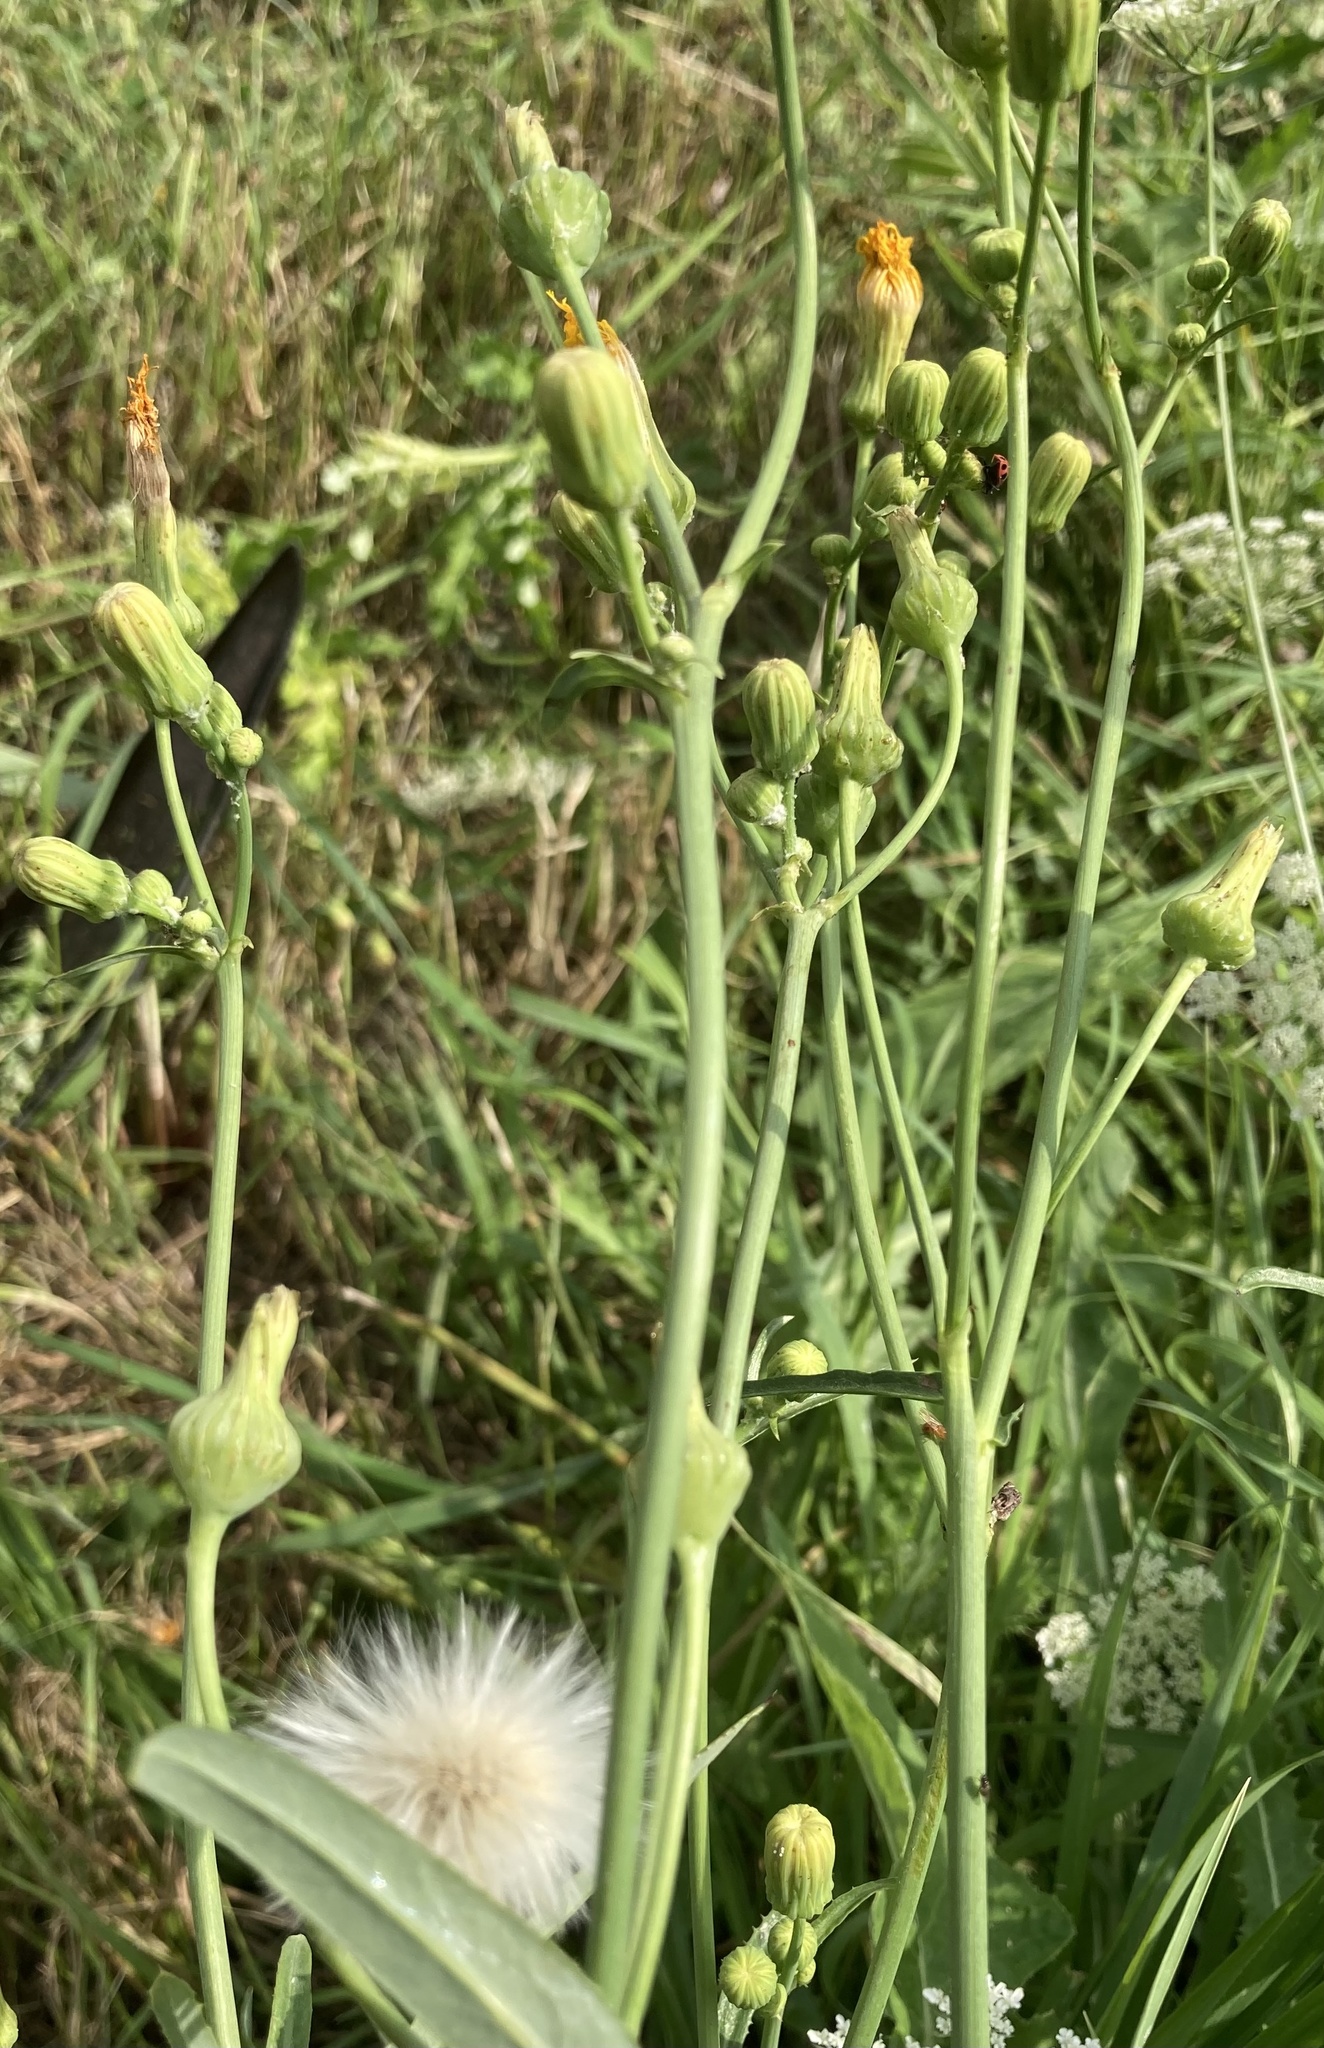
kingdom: Plantae
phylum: Tracheophyta
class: Magnoliopsida
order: Asterales
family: Asteraceae
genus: Sonchus
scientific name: Sonchus arvensis
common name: Perennial sow-thistle
